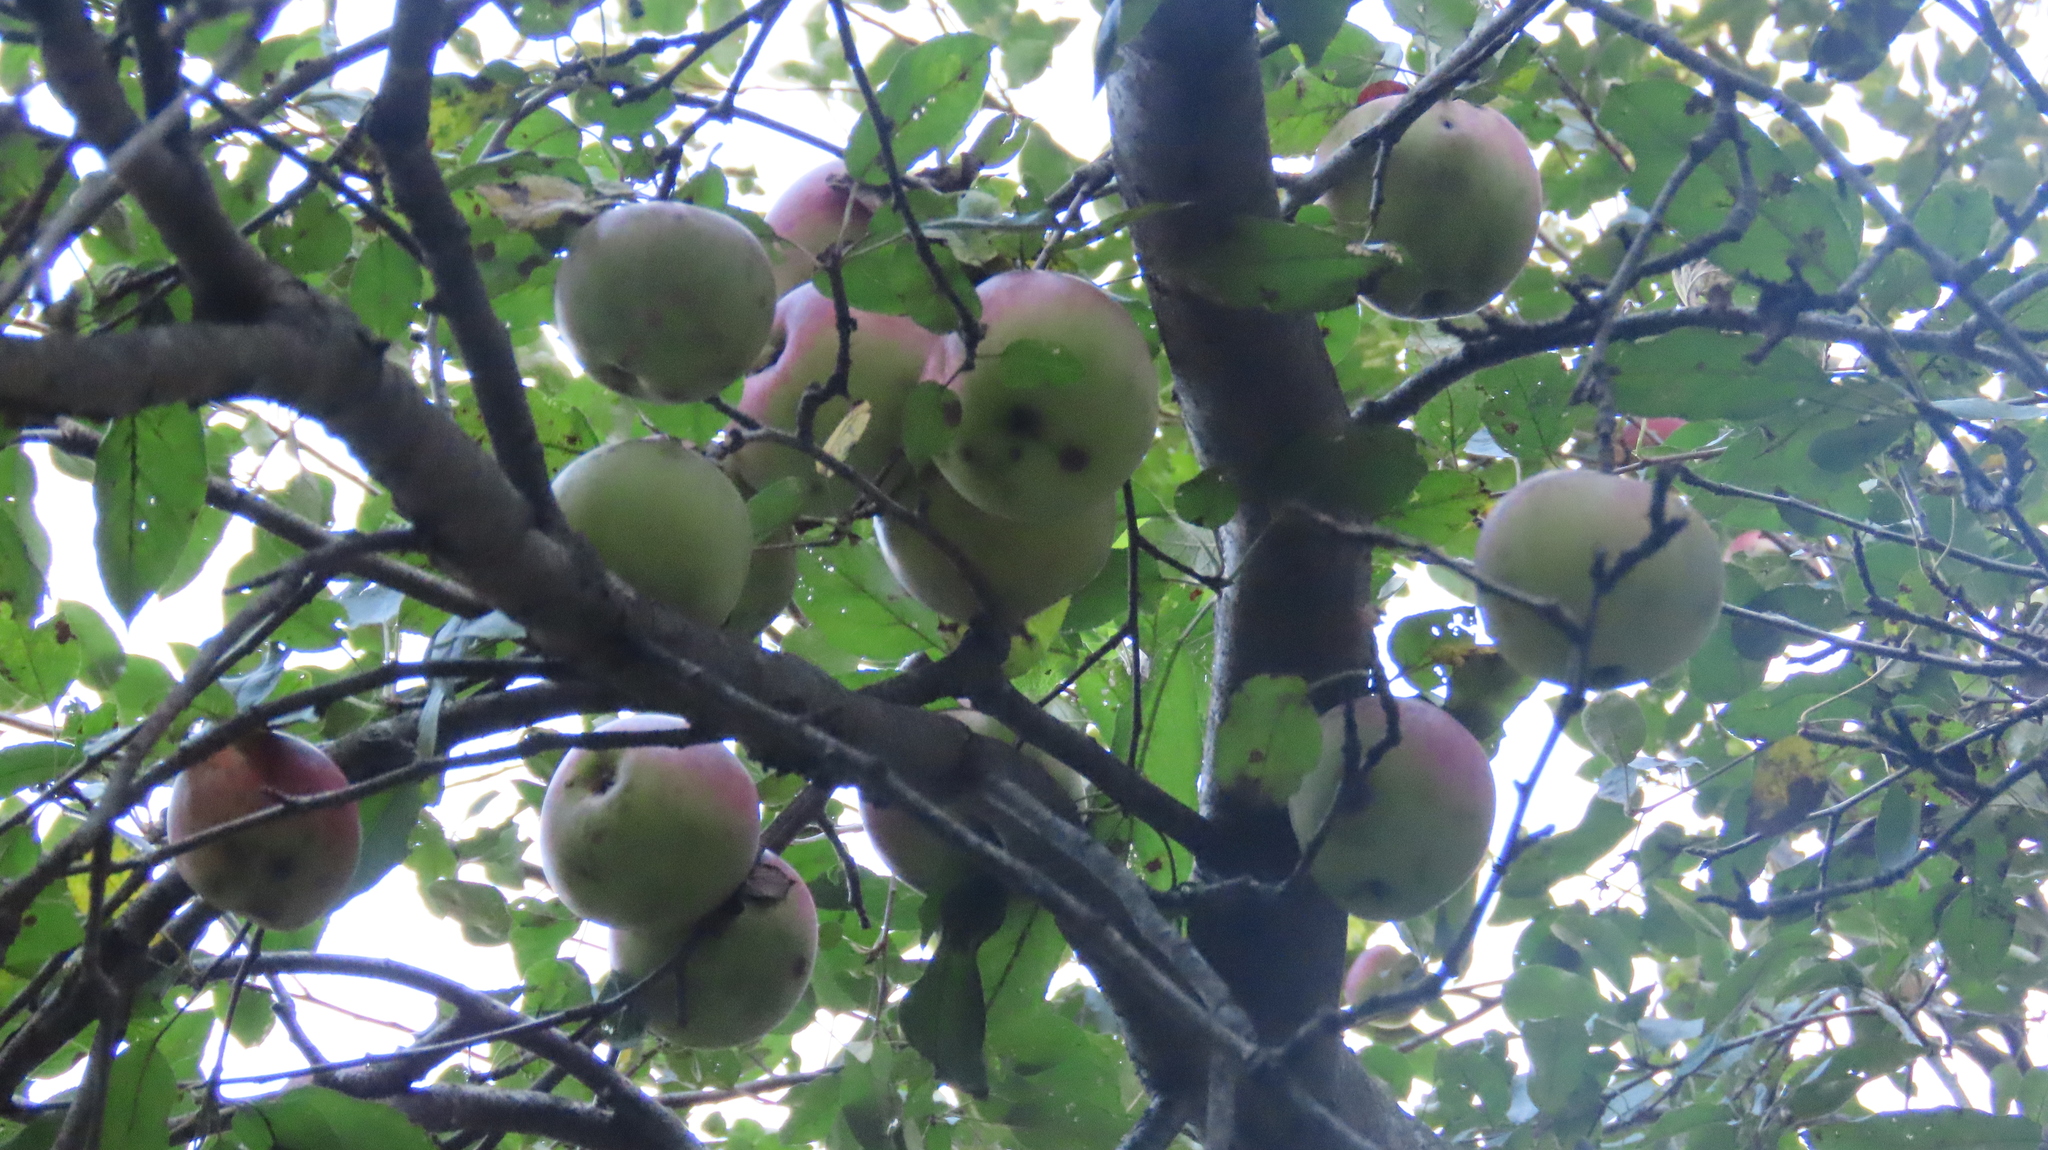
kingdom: Plantae
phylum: Tracheophyta
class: Magnoliopsida
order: Rosales
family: Rosaceae
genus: Malus
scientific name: Malus domestica
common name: Apple
